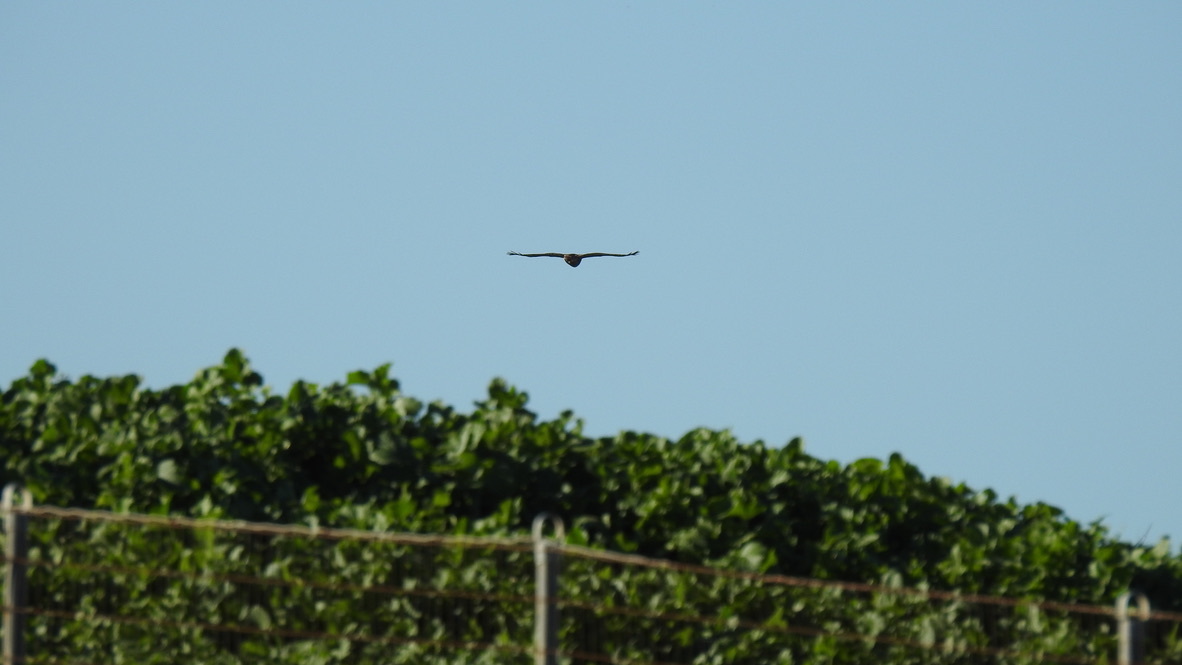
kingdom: Animalia
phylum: Chordata
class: Aves
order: Accipitriformes
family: Accipitridae
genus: Buteo
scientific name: Buteo jamaicensis
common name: Red-tailed hawk
